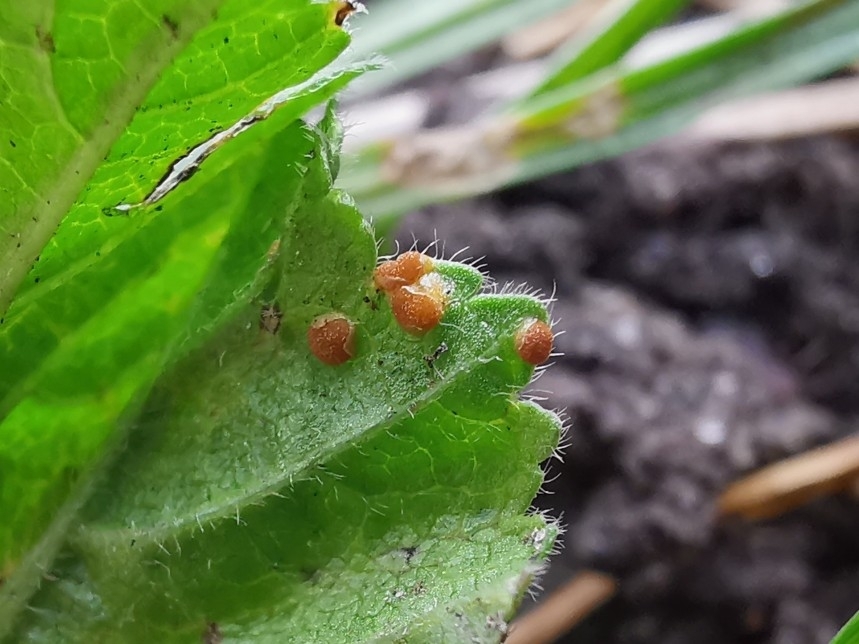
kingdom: Fungi
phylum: Basidiomycota
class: Pucciniomycetes
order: Pucciniales
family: Pucciniaceae
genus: Puccinia
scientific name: Puccinia malvacearum
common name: Hollyhock rust
